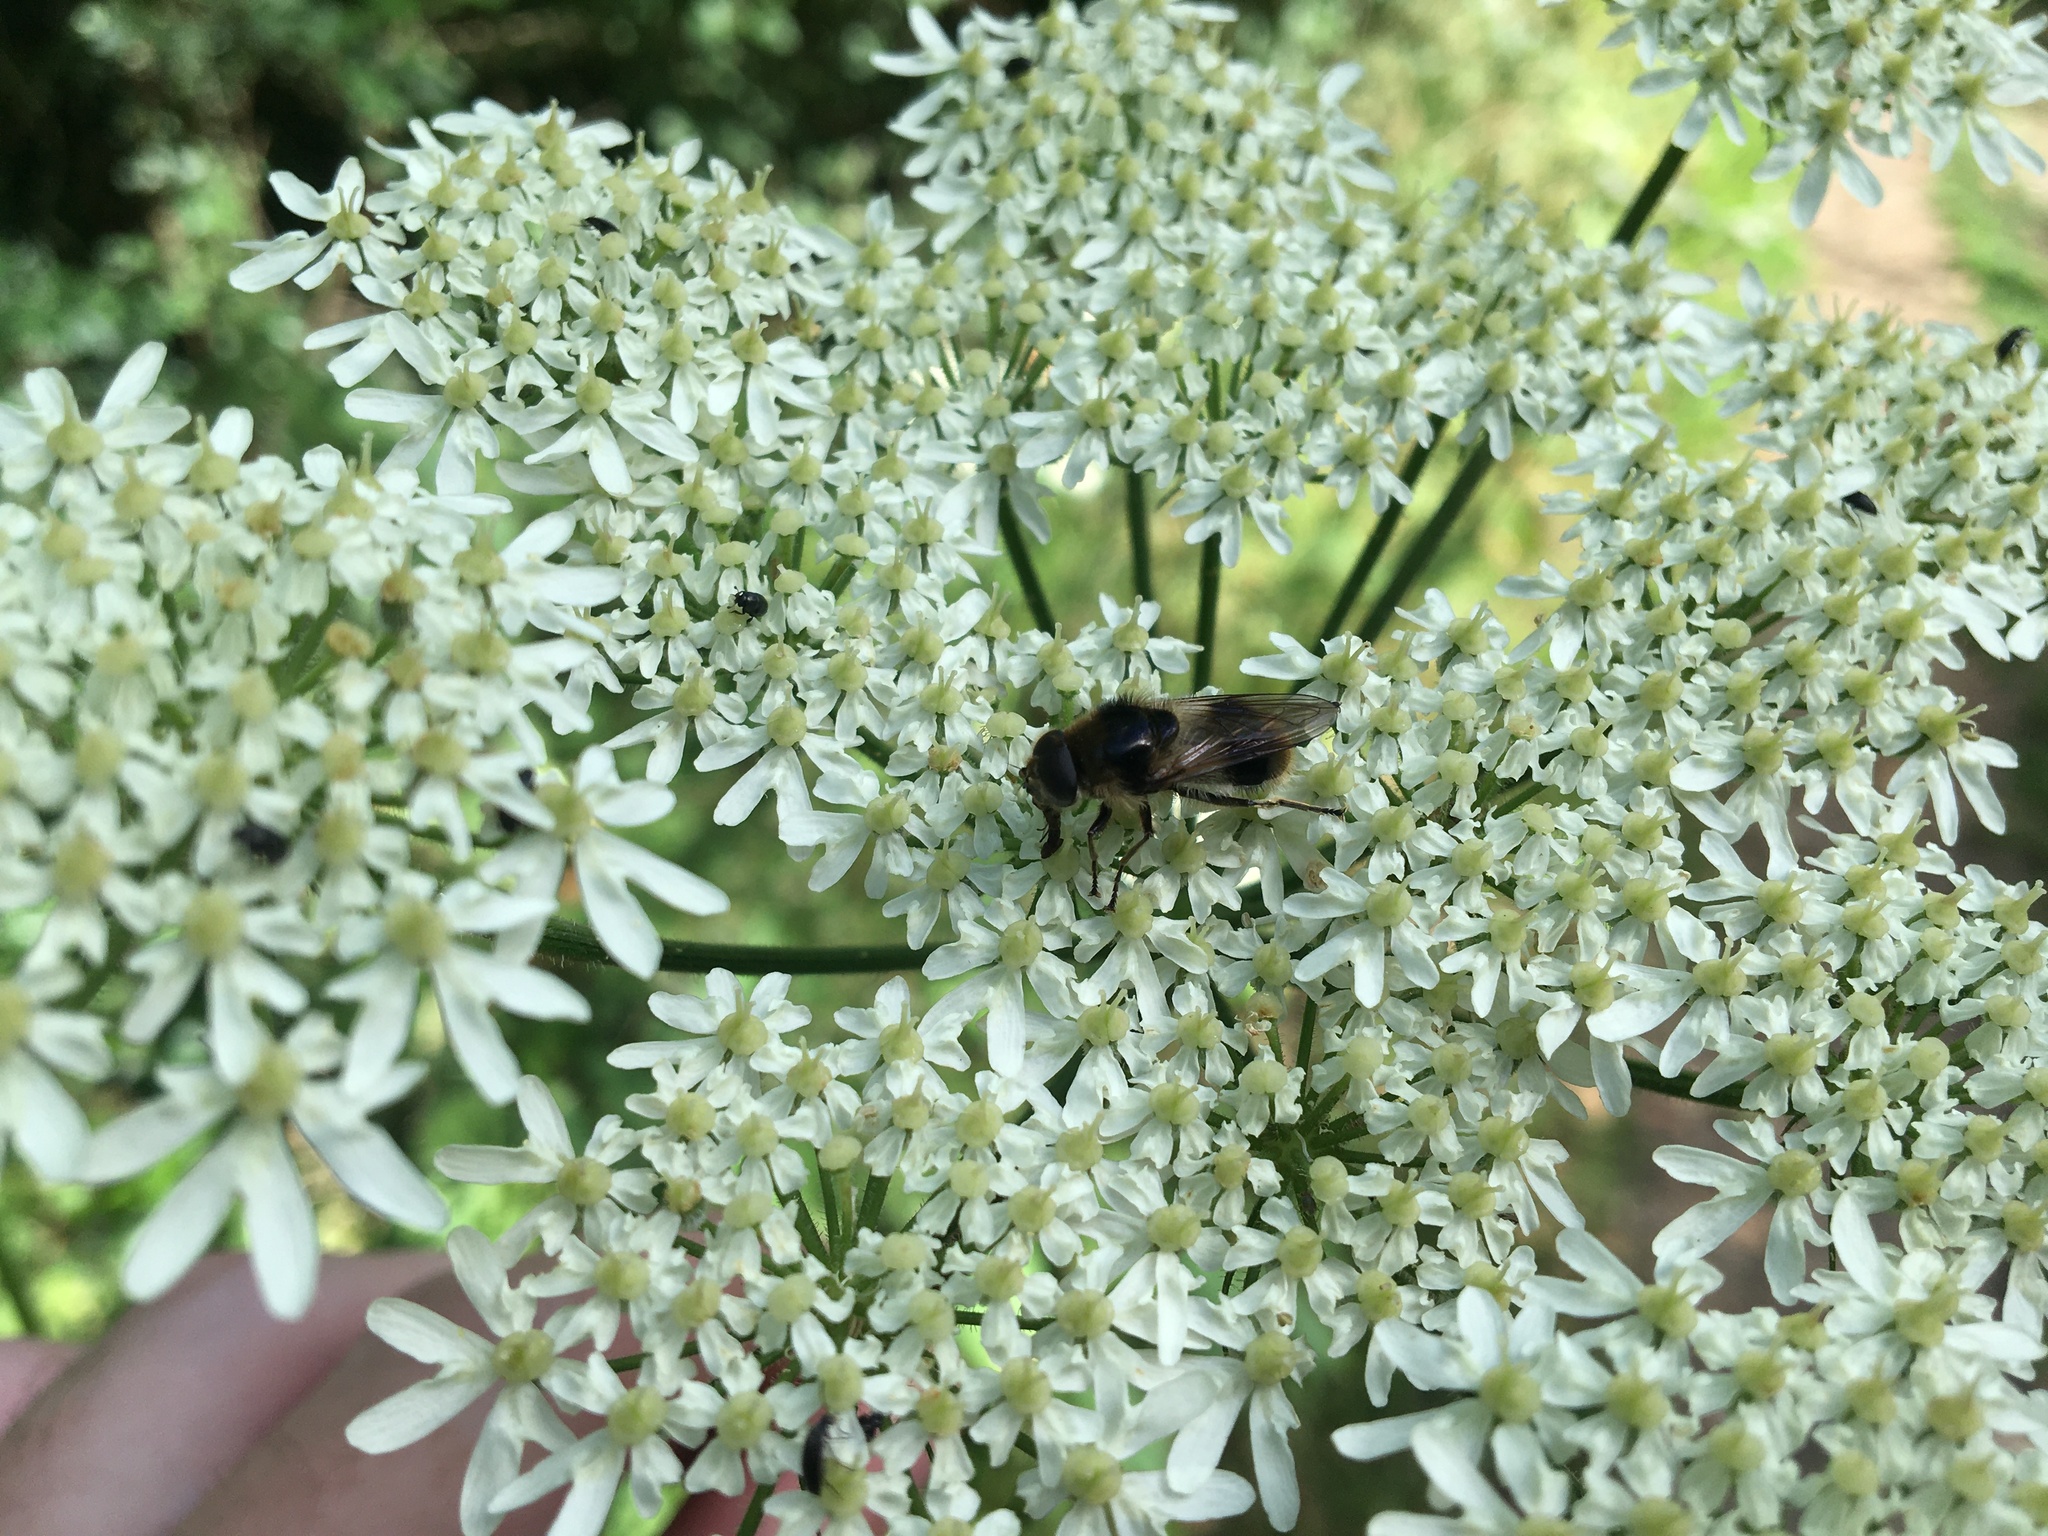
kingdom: Animalia
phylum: Arthropoda
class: Insecta
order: Diptera
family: Syrphidae
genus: Cheilosia
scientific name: Cheilosia illustrata
